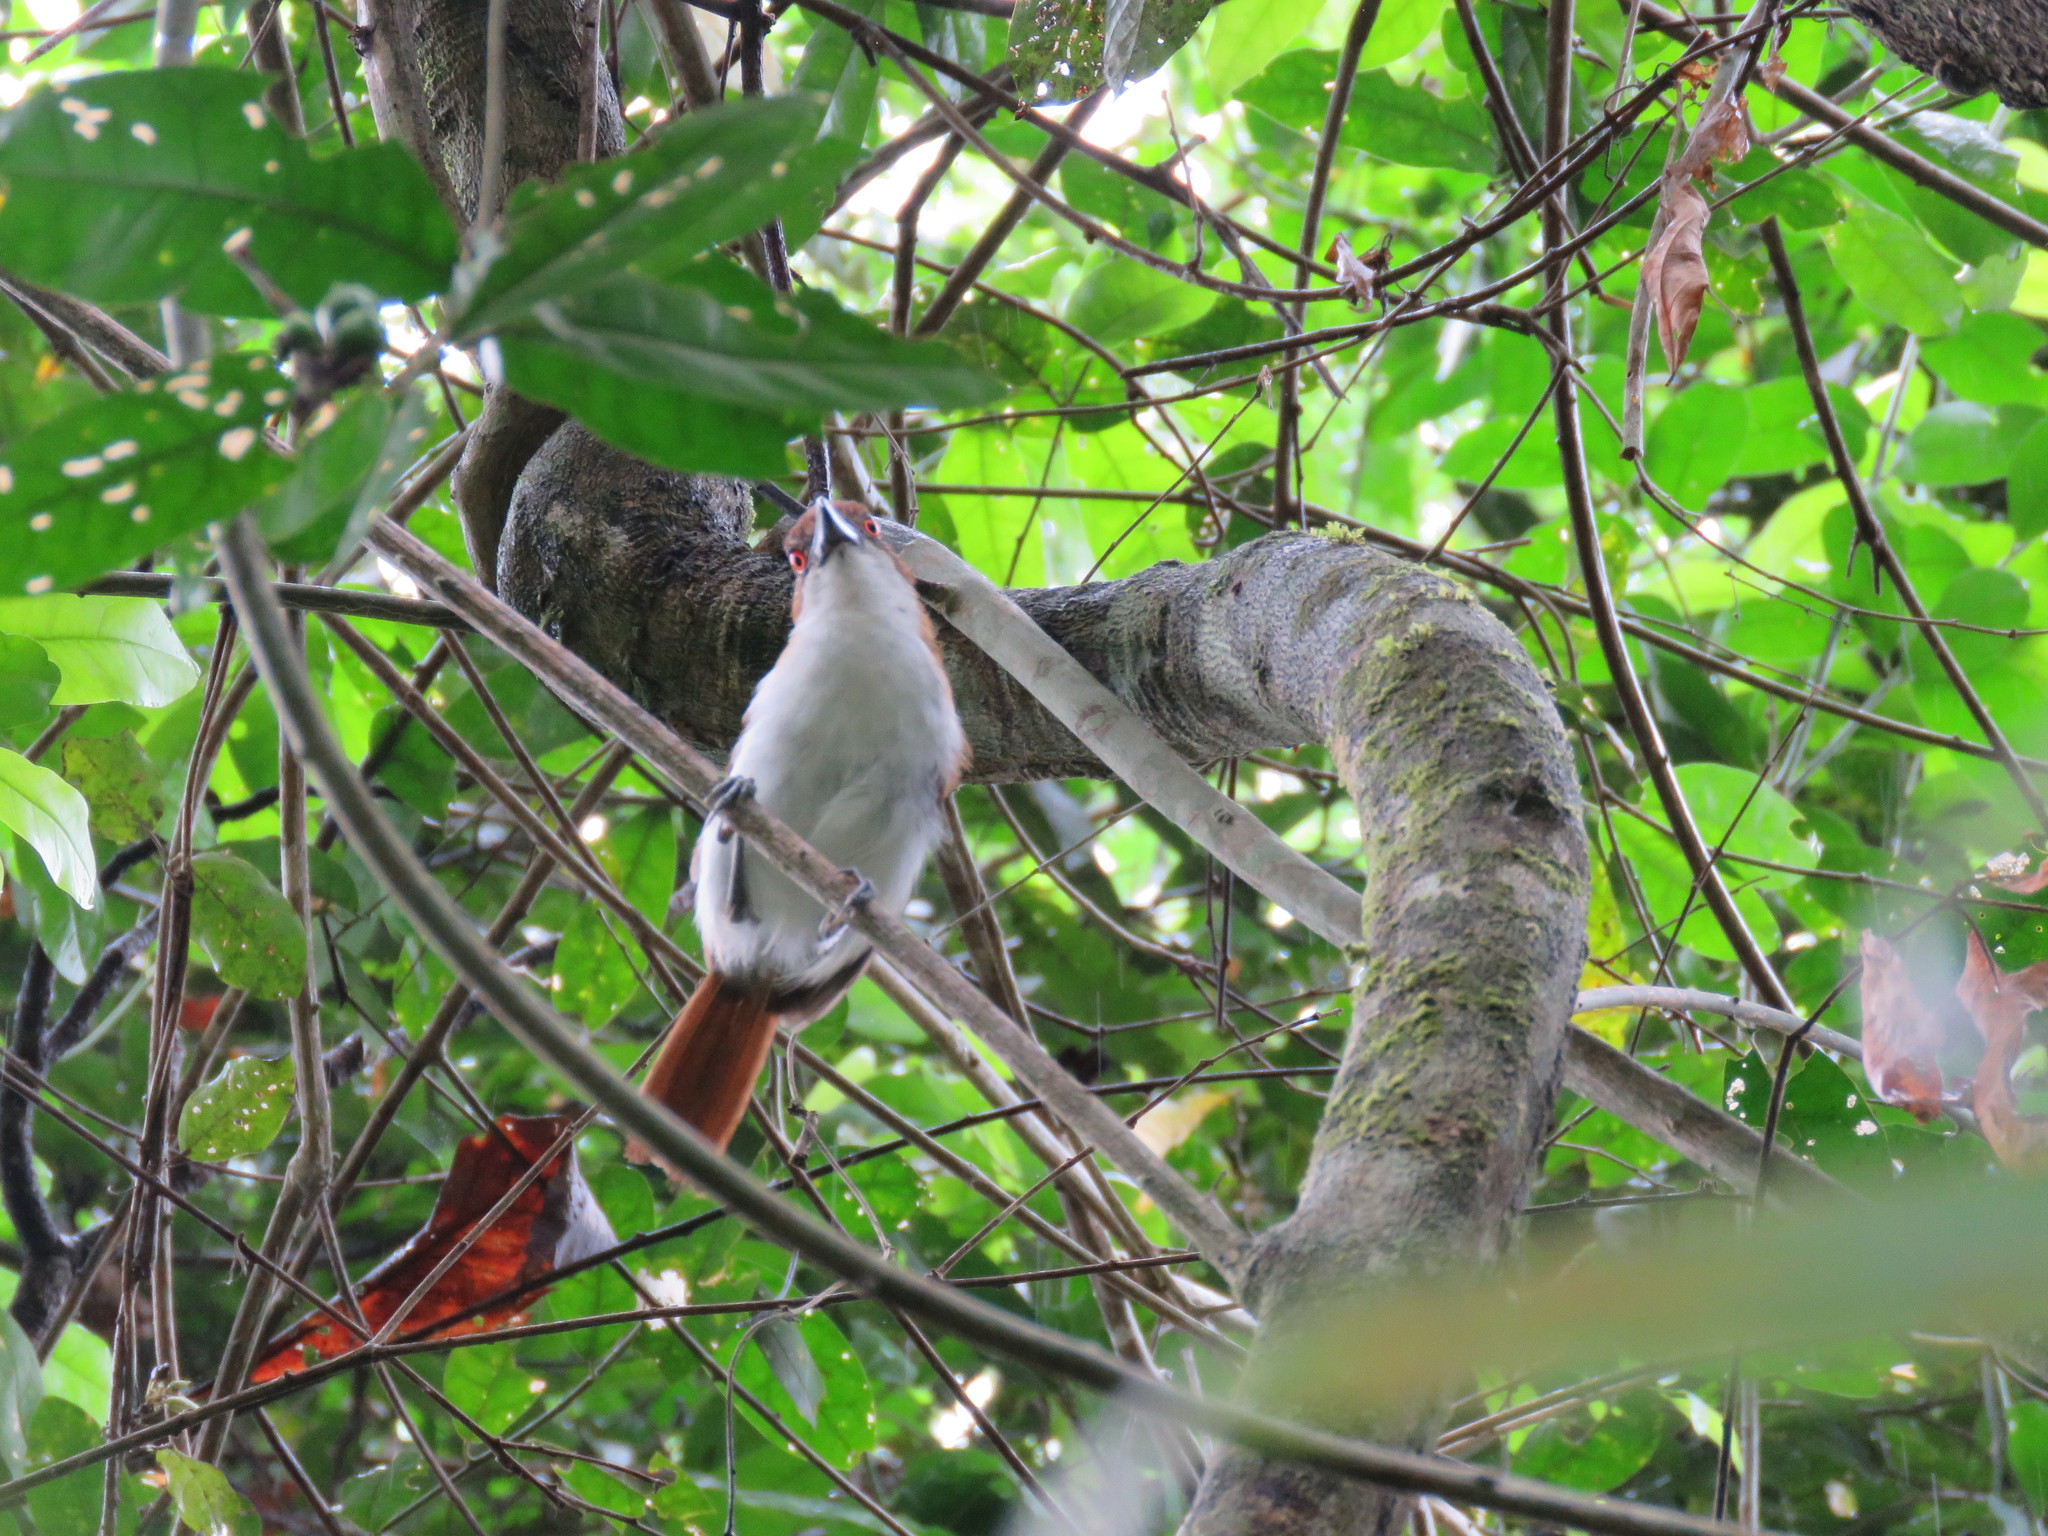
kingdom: Animalia
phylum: Chordata
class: Aves
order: Passeriformes
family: Thamnophilidae
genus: Taraba
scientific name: Taraba major
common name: Great antshrike
